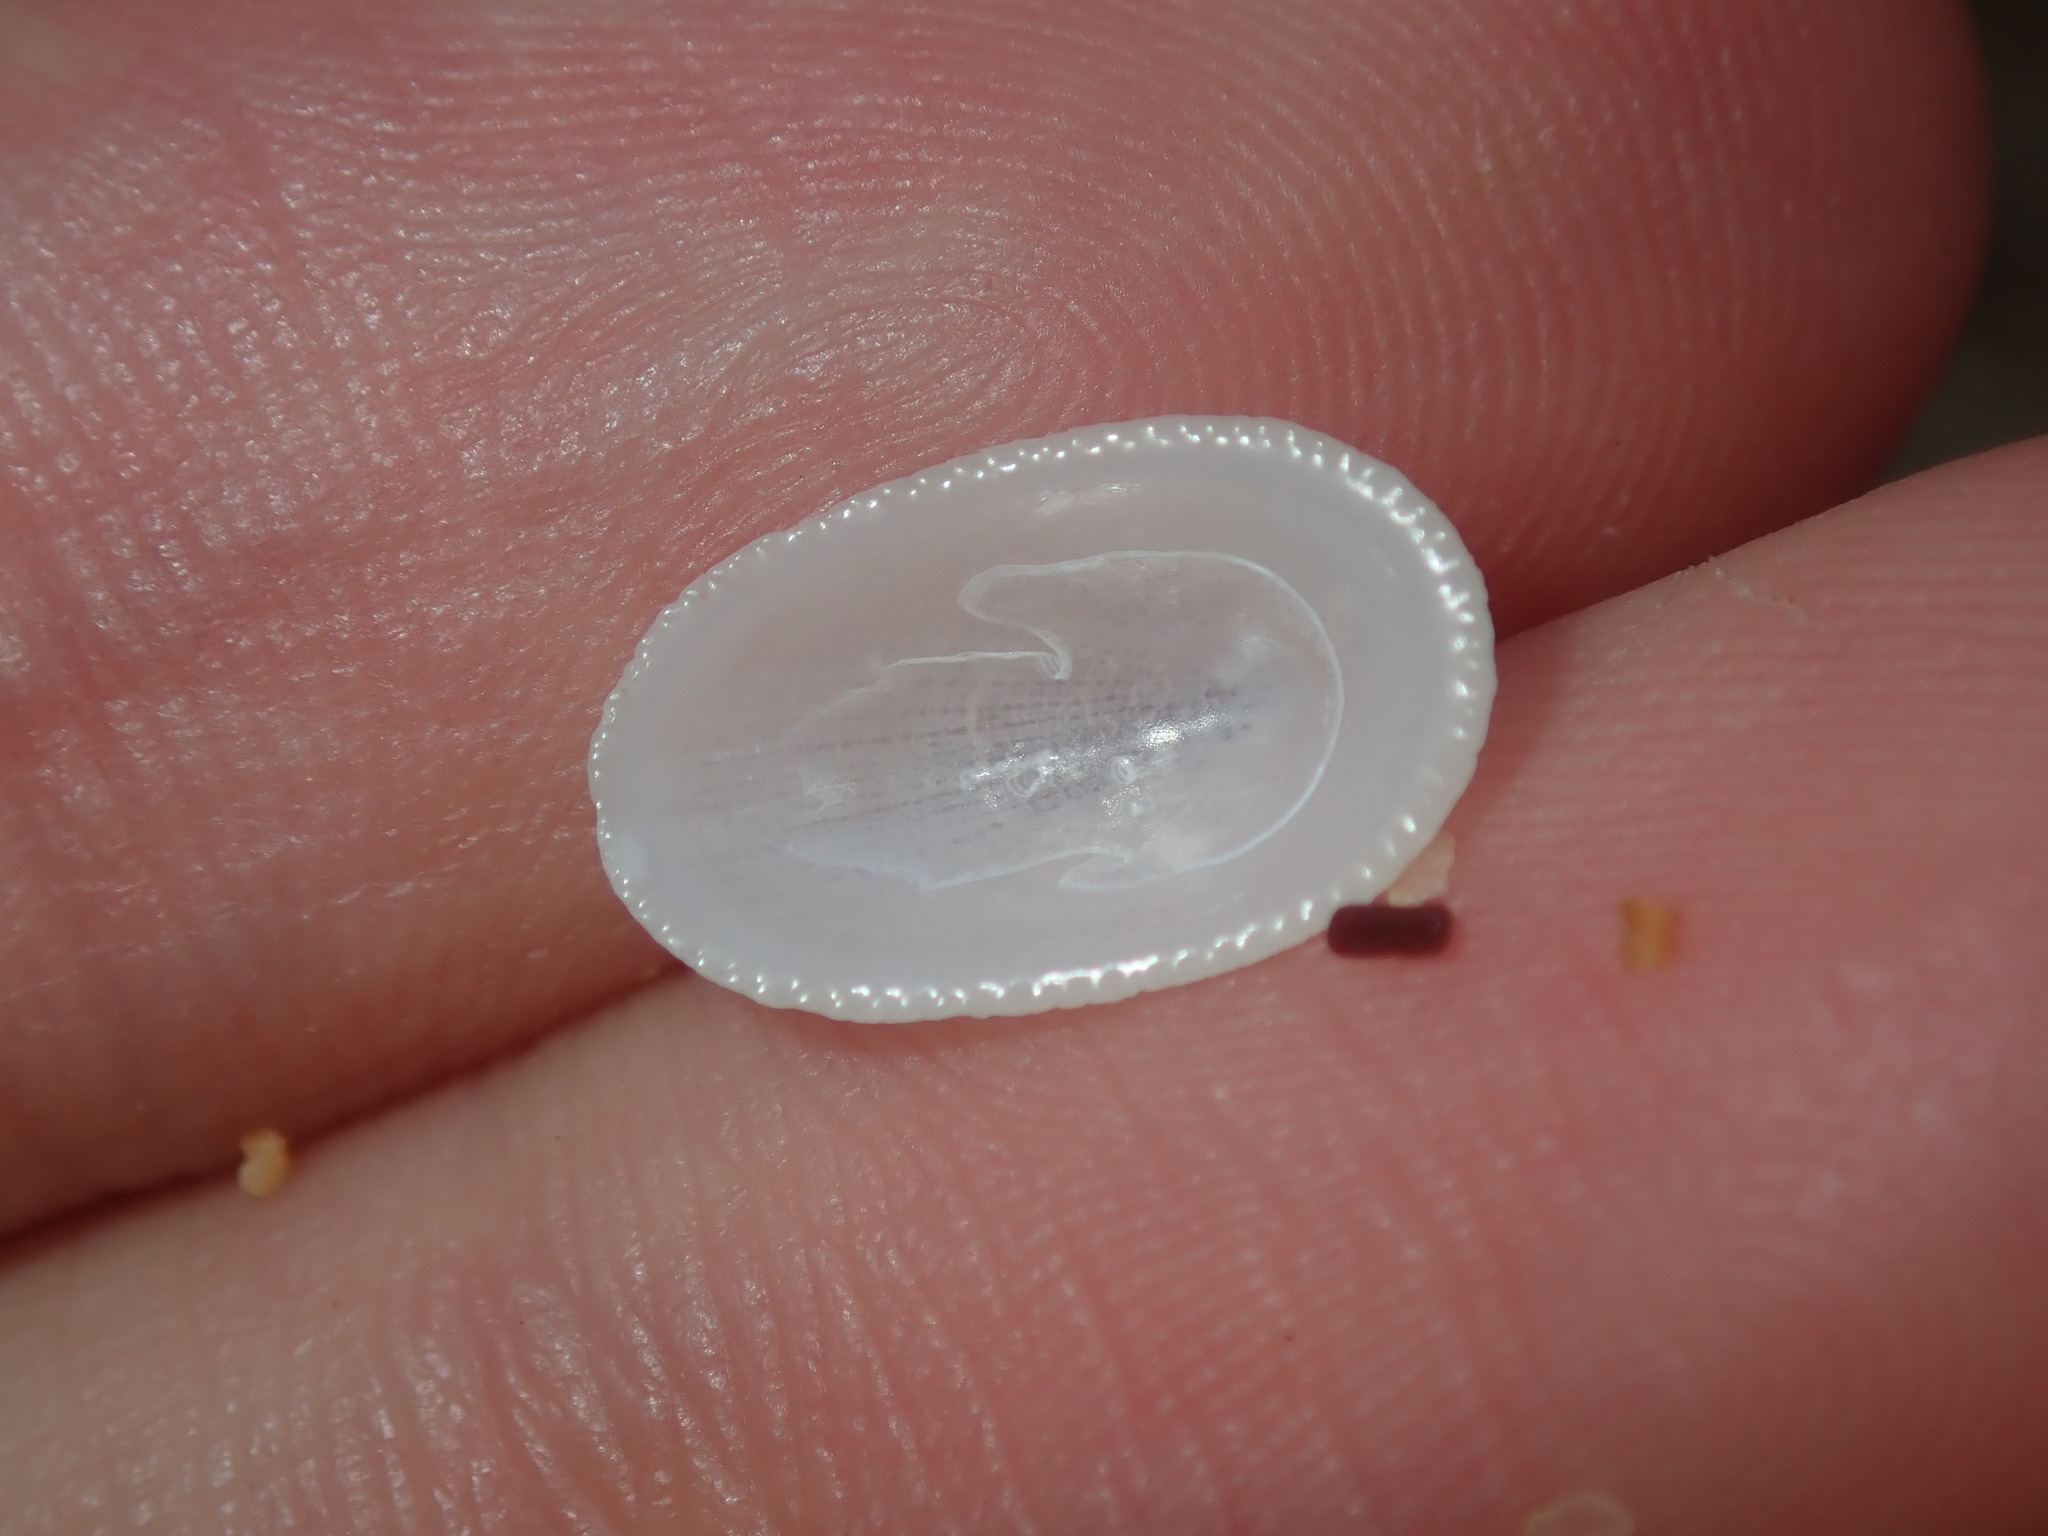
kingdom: Animalia
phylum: Mollusca
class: Gastropoda
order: Lepetellida
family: Fissurellidae
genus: Tugali
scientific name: Tugali parmophoidea
